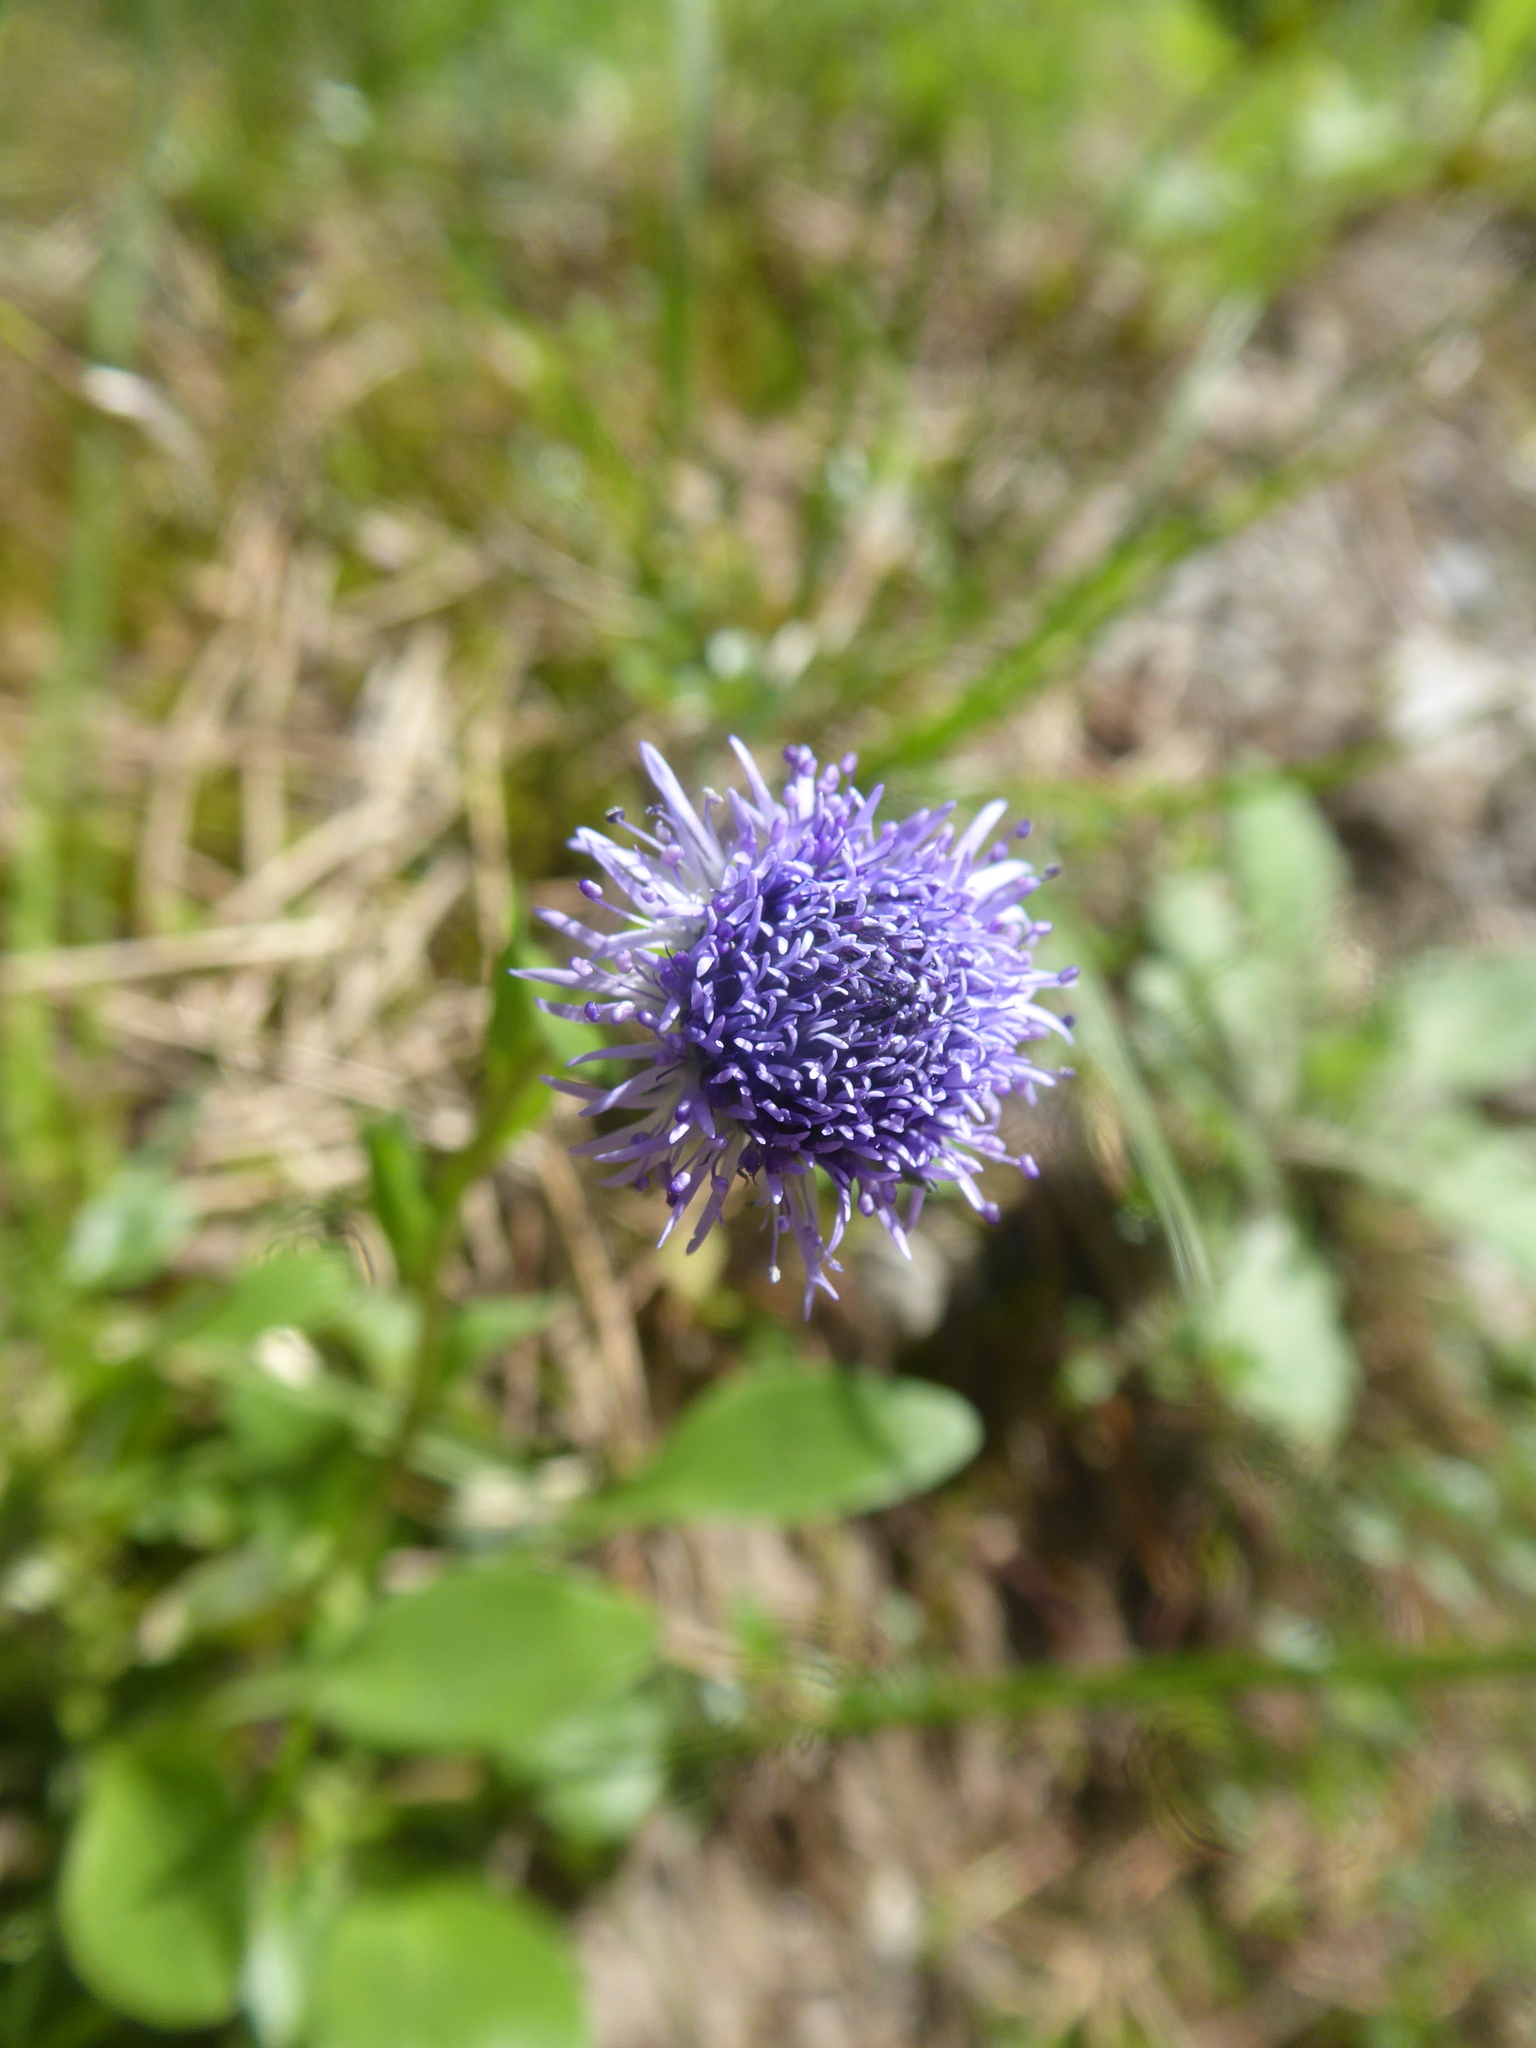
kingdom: Plantae
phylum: Tracheophyta
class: Magnoliopsida
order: Lamiales
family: Plantaginaceae
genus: Globularia
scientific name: Globularia bisnagarica
